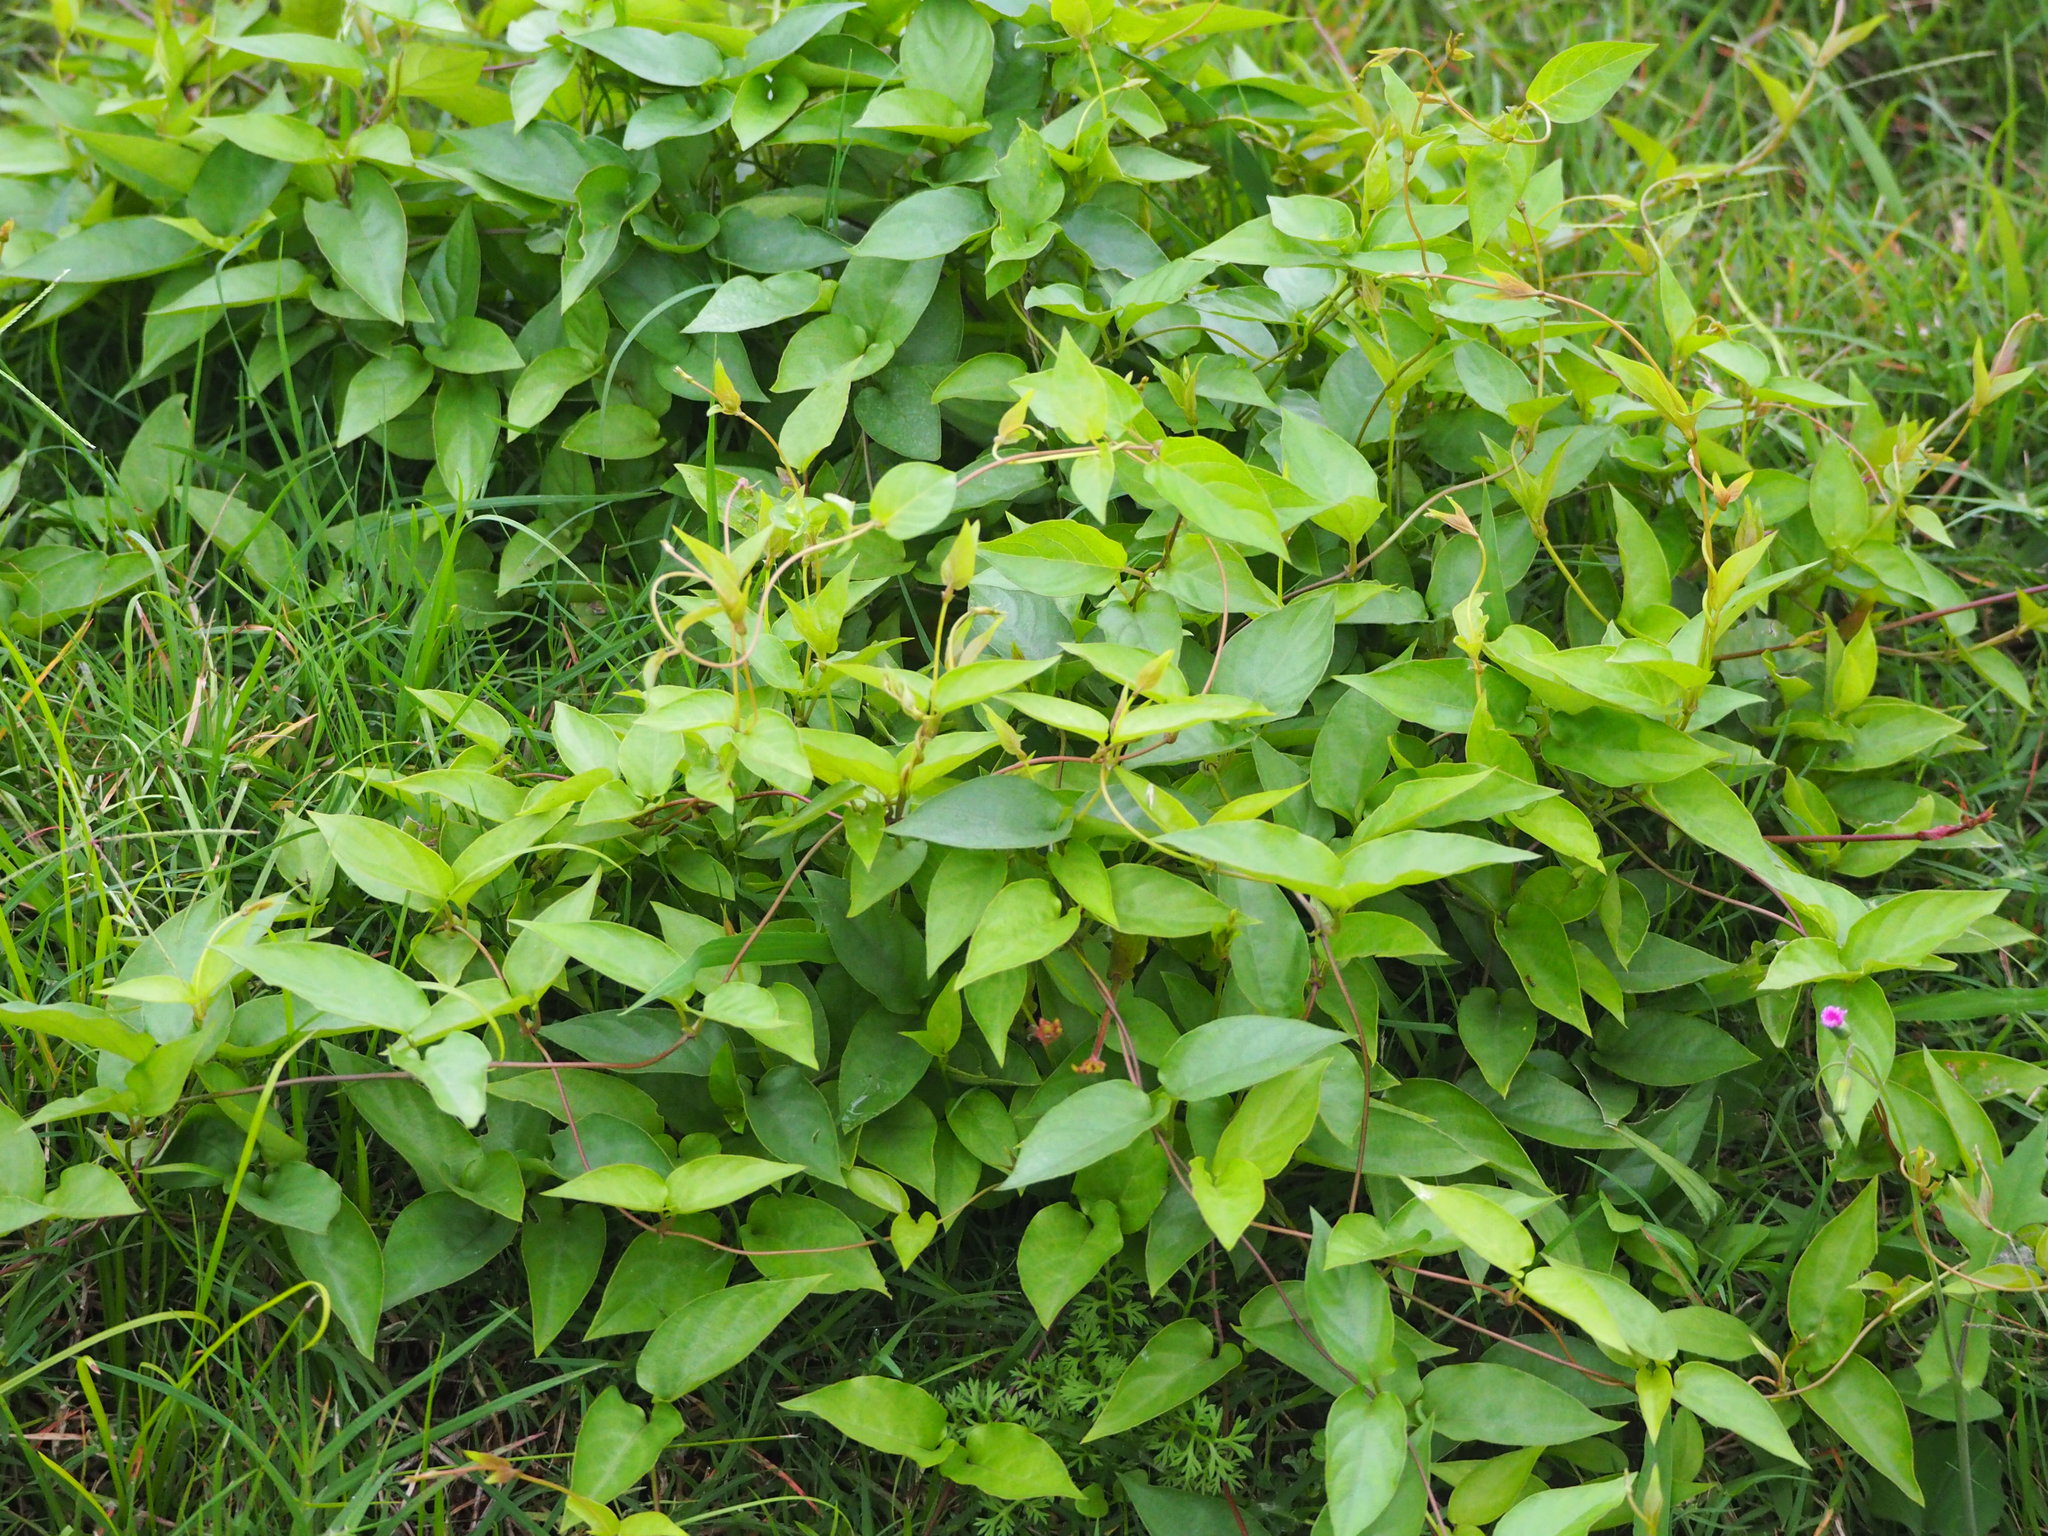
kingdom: Plantae
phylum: Tracheophyta
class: Magnoliopsida
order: Gentianales
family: Rubiaceae
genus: Paederia
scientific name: Paederia foetida
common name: Stinkvine
